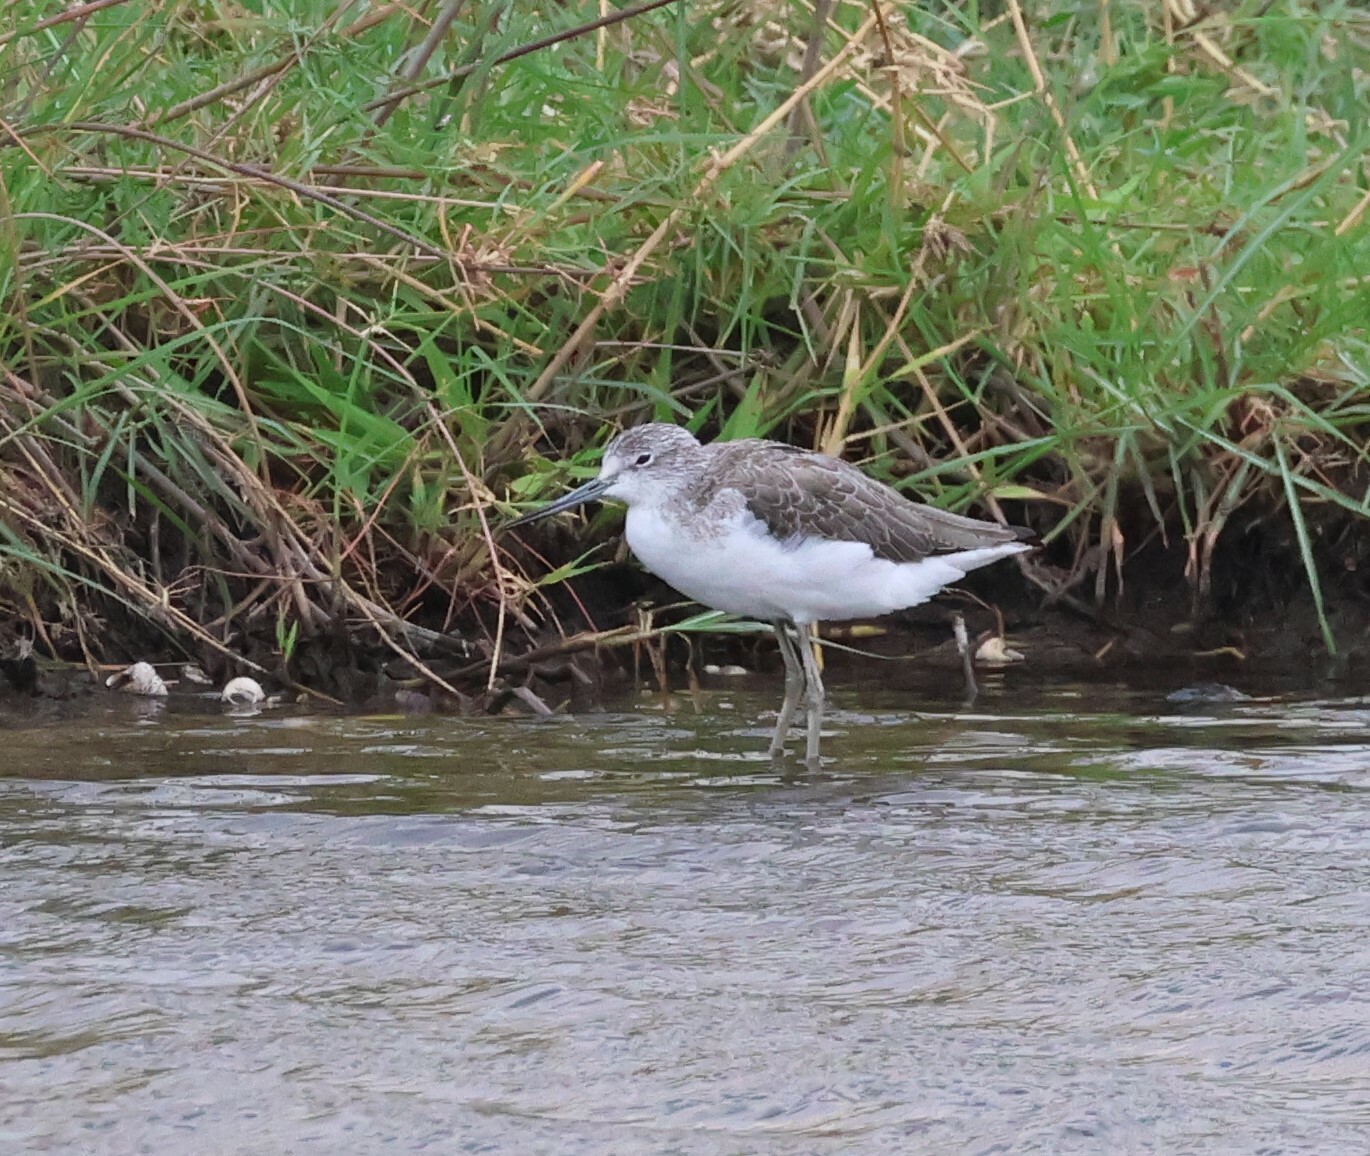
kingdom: Animalia
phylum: Chordata
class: Aves
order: Charadriiformes
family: Scolopacidae
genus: Tringa
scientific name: Tringa nebularia
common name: Common greenshank
